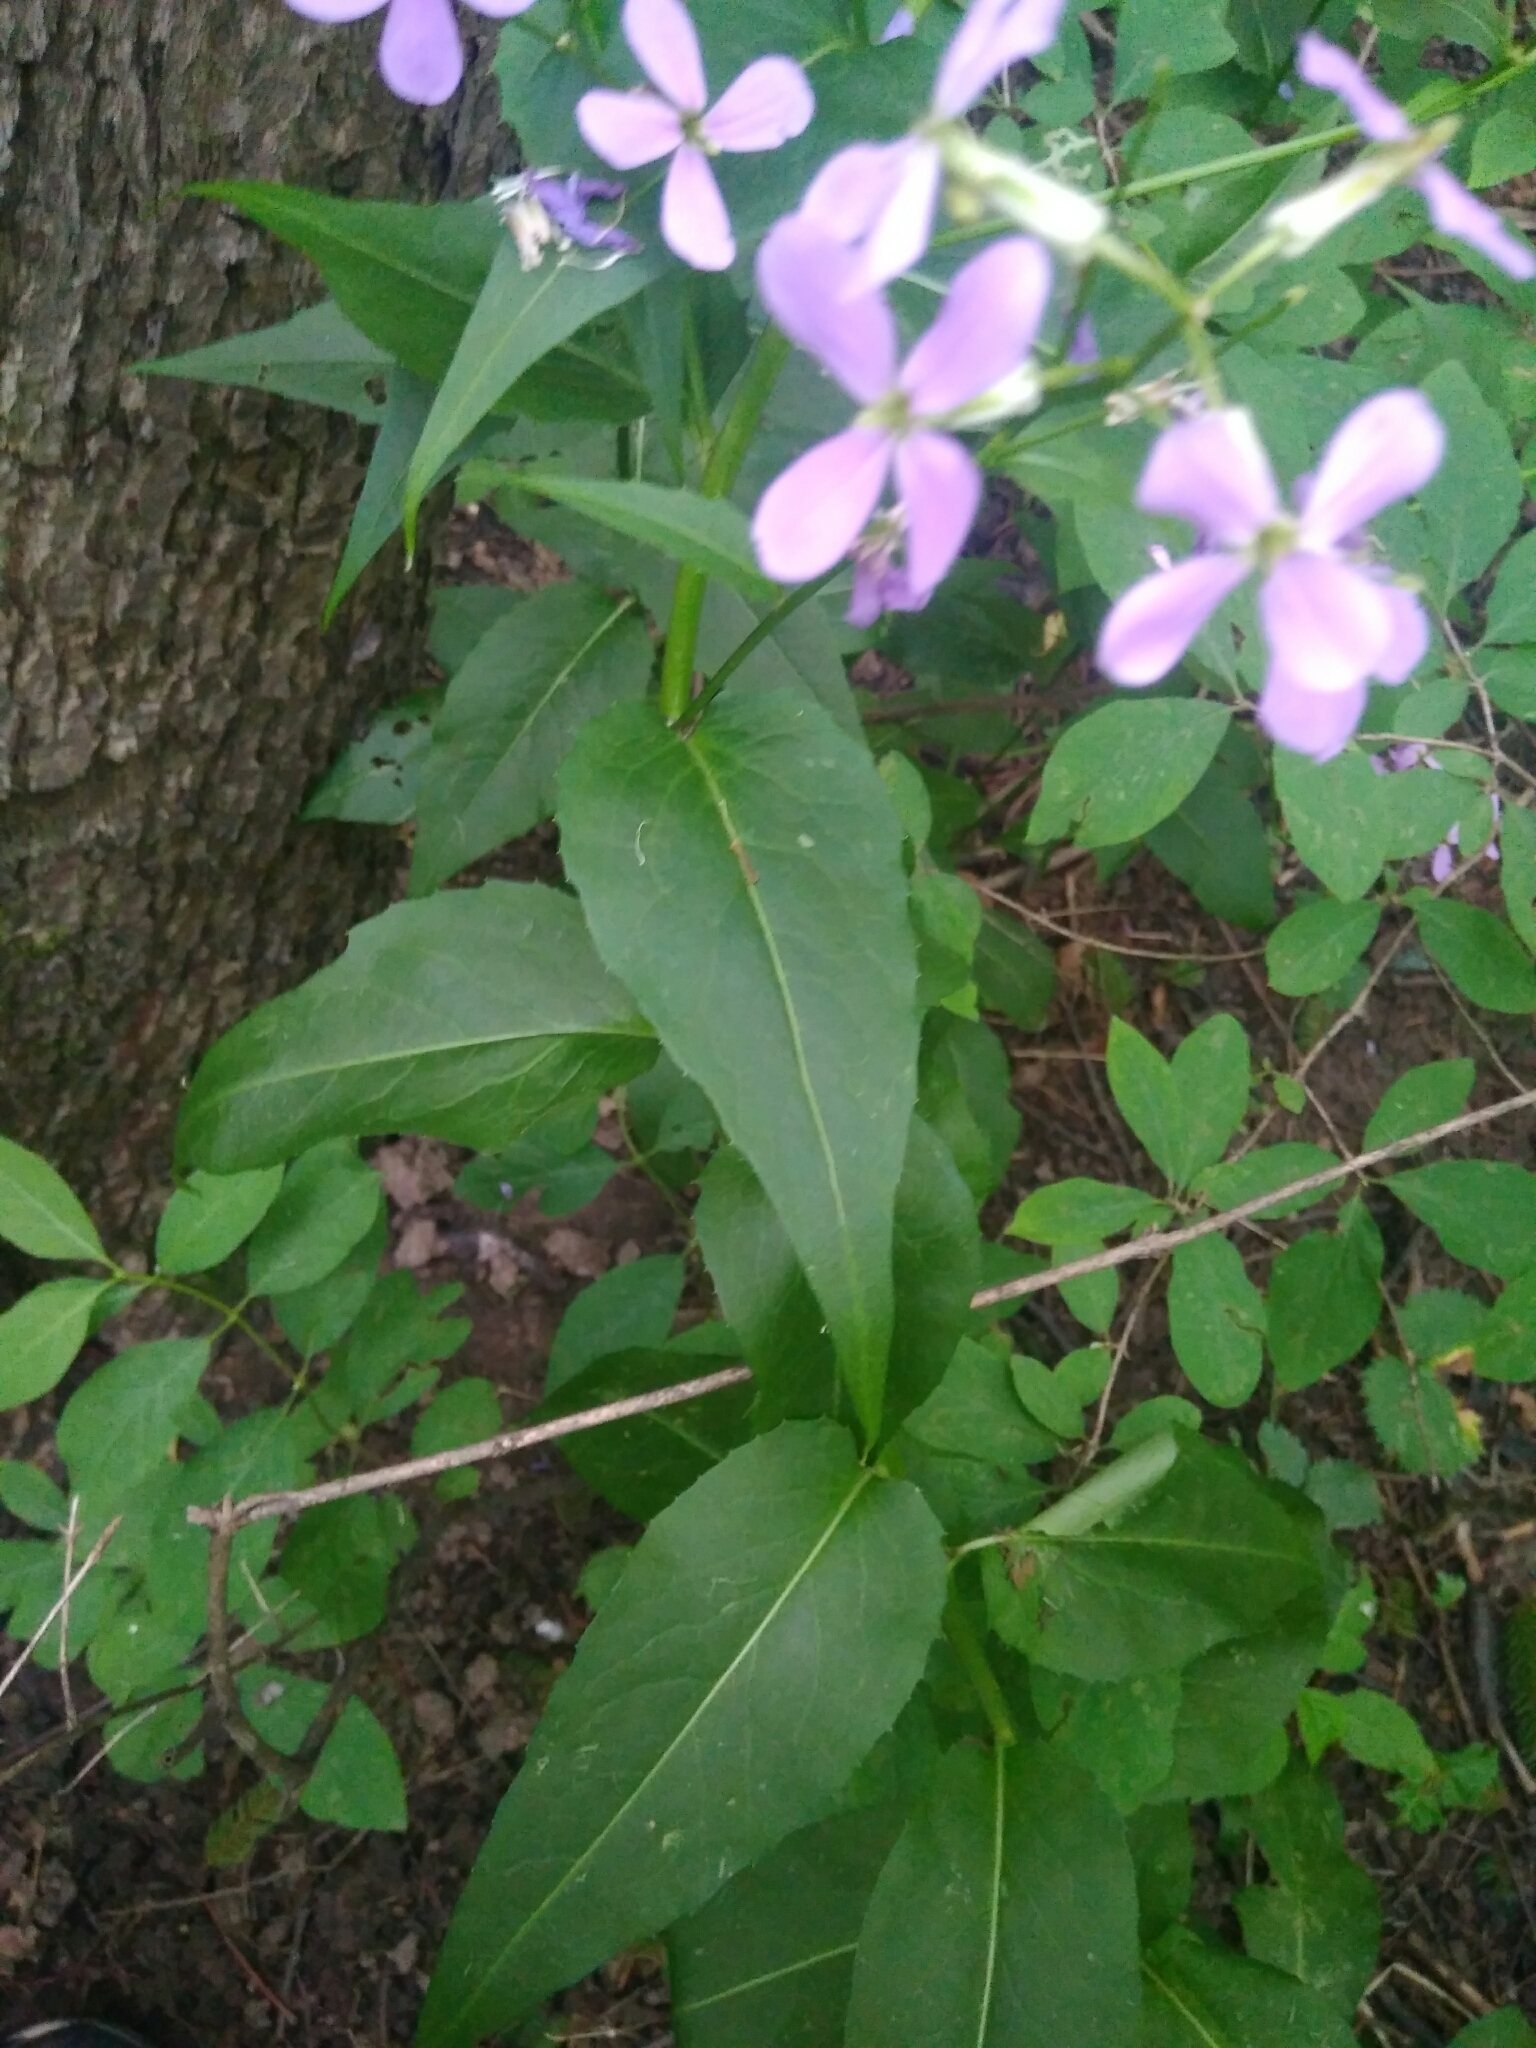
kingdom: Plantae
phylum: Tracheophyta
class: Magnoliopsida
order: Brassicales
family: Brassicaceae
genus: Hesperis
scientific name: Hesperis matronalis
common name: Dame's-violet
